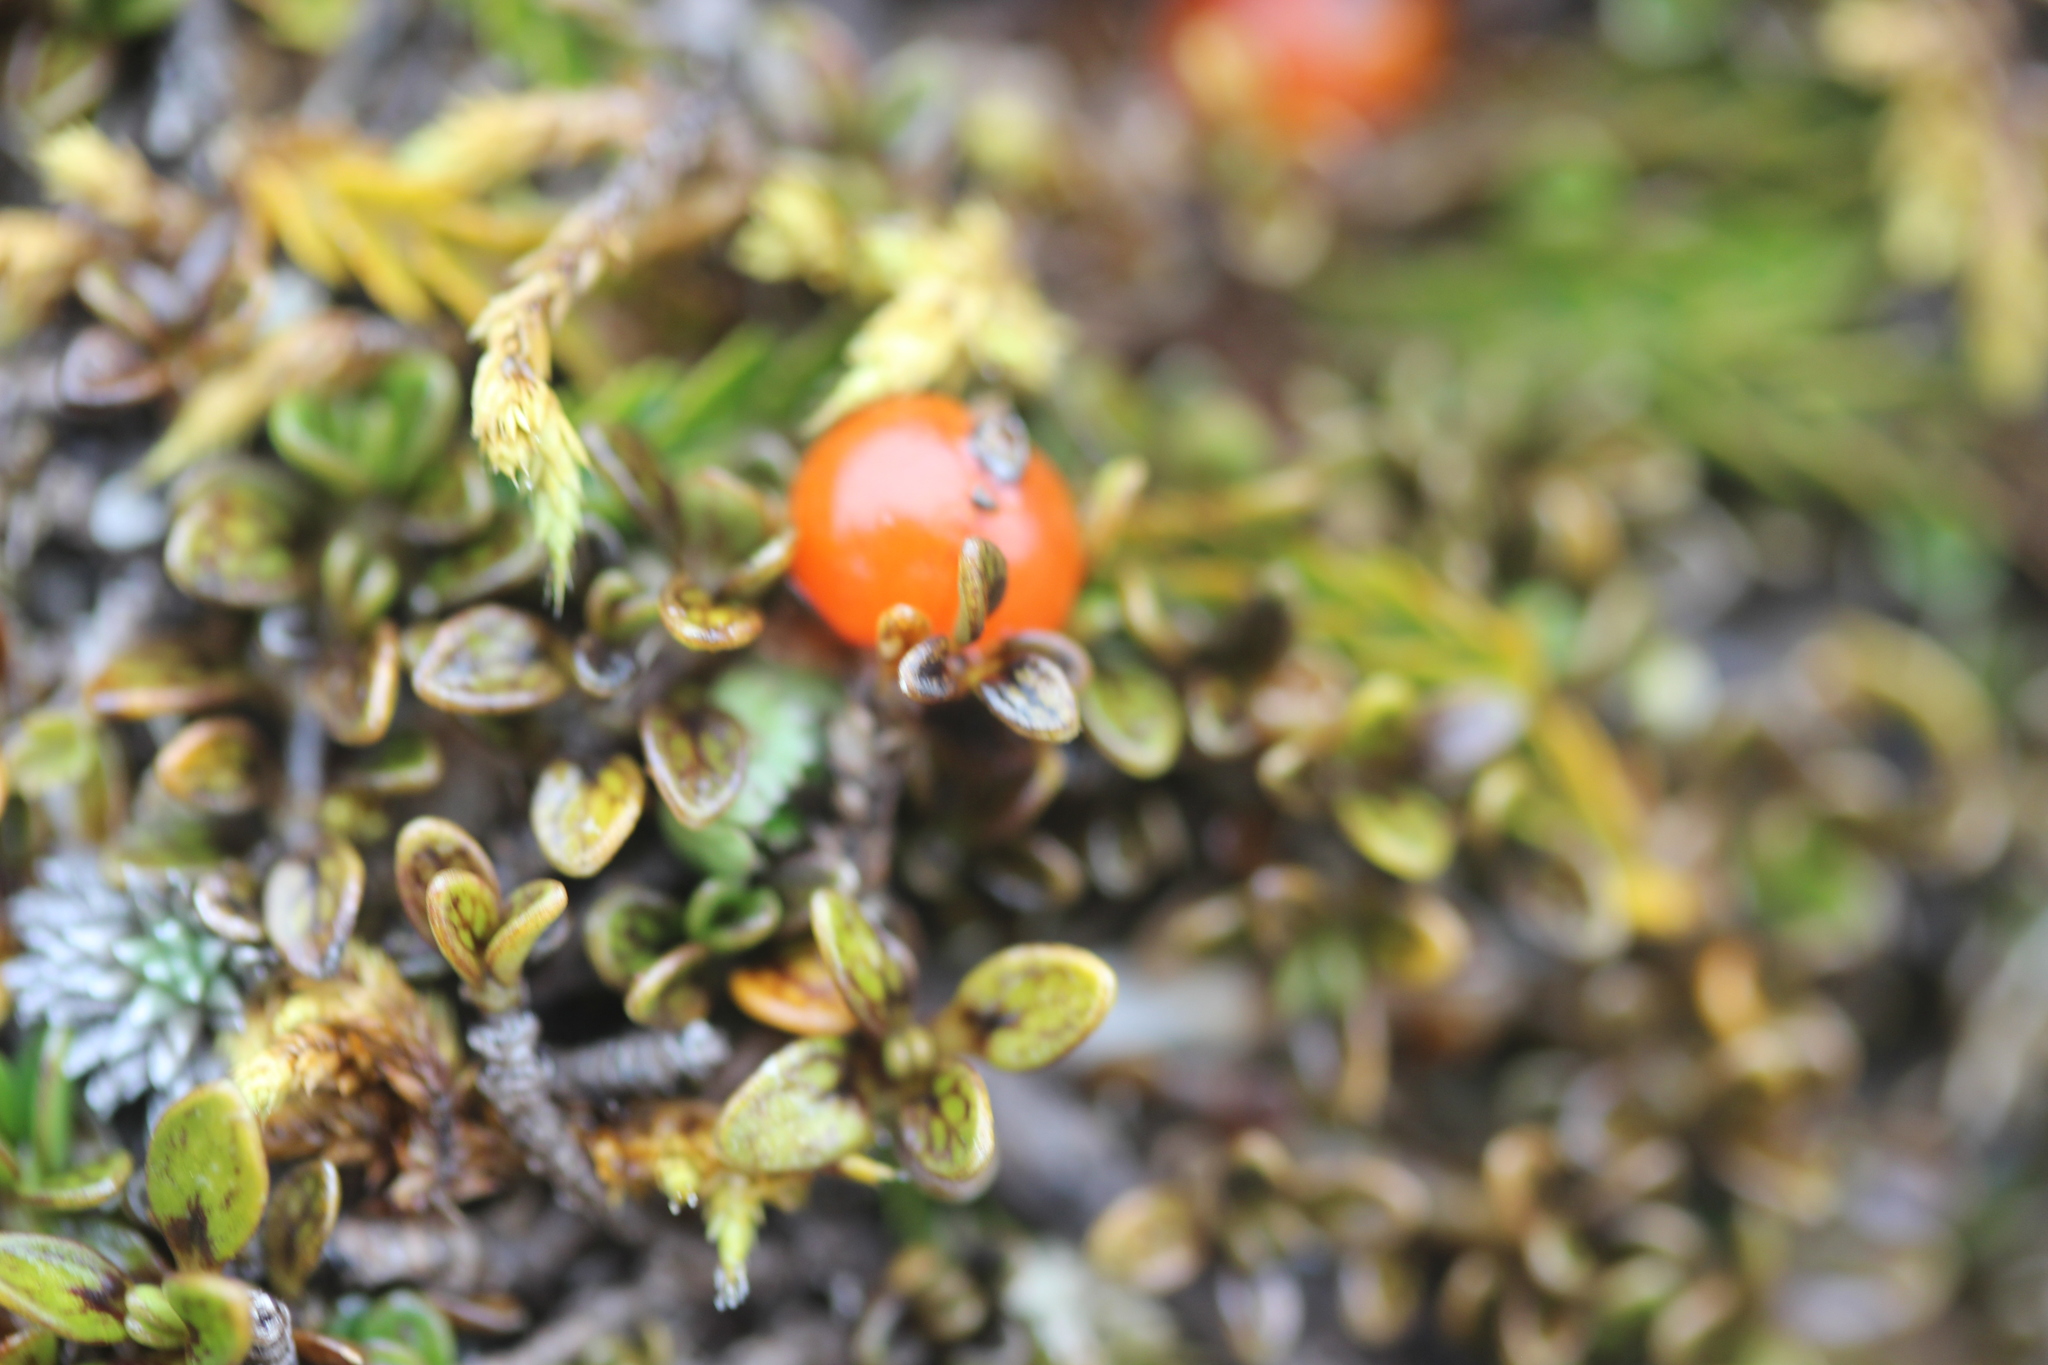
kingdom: Plantae
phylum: Tracheophyta
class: Magnoliopsida
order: Gentianales
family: Rubiaceae
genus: Coprosma
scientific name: Coprosma perpusilla
